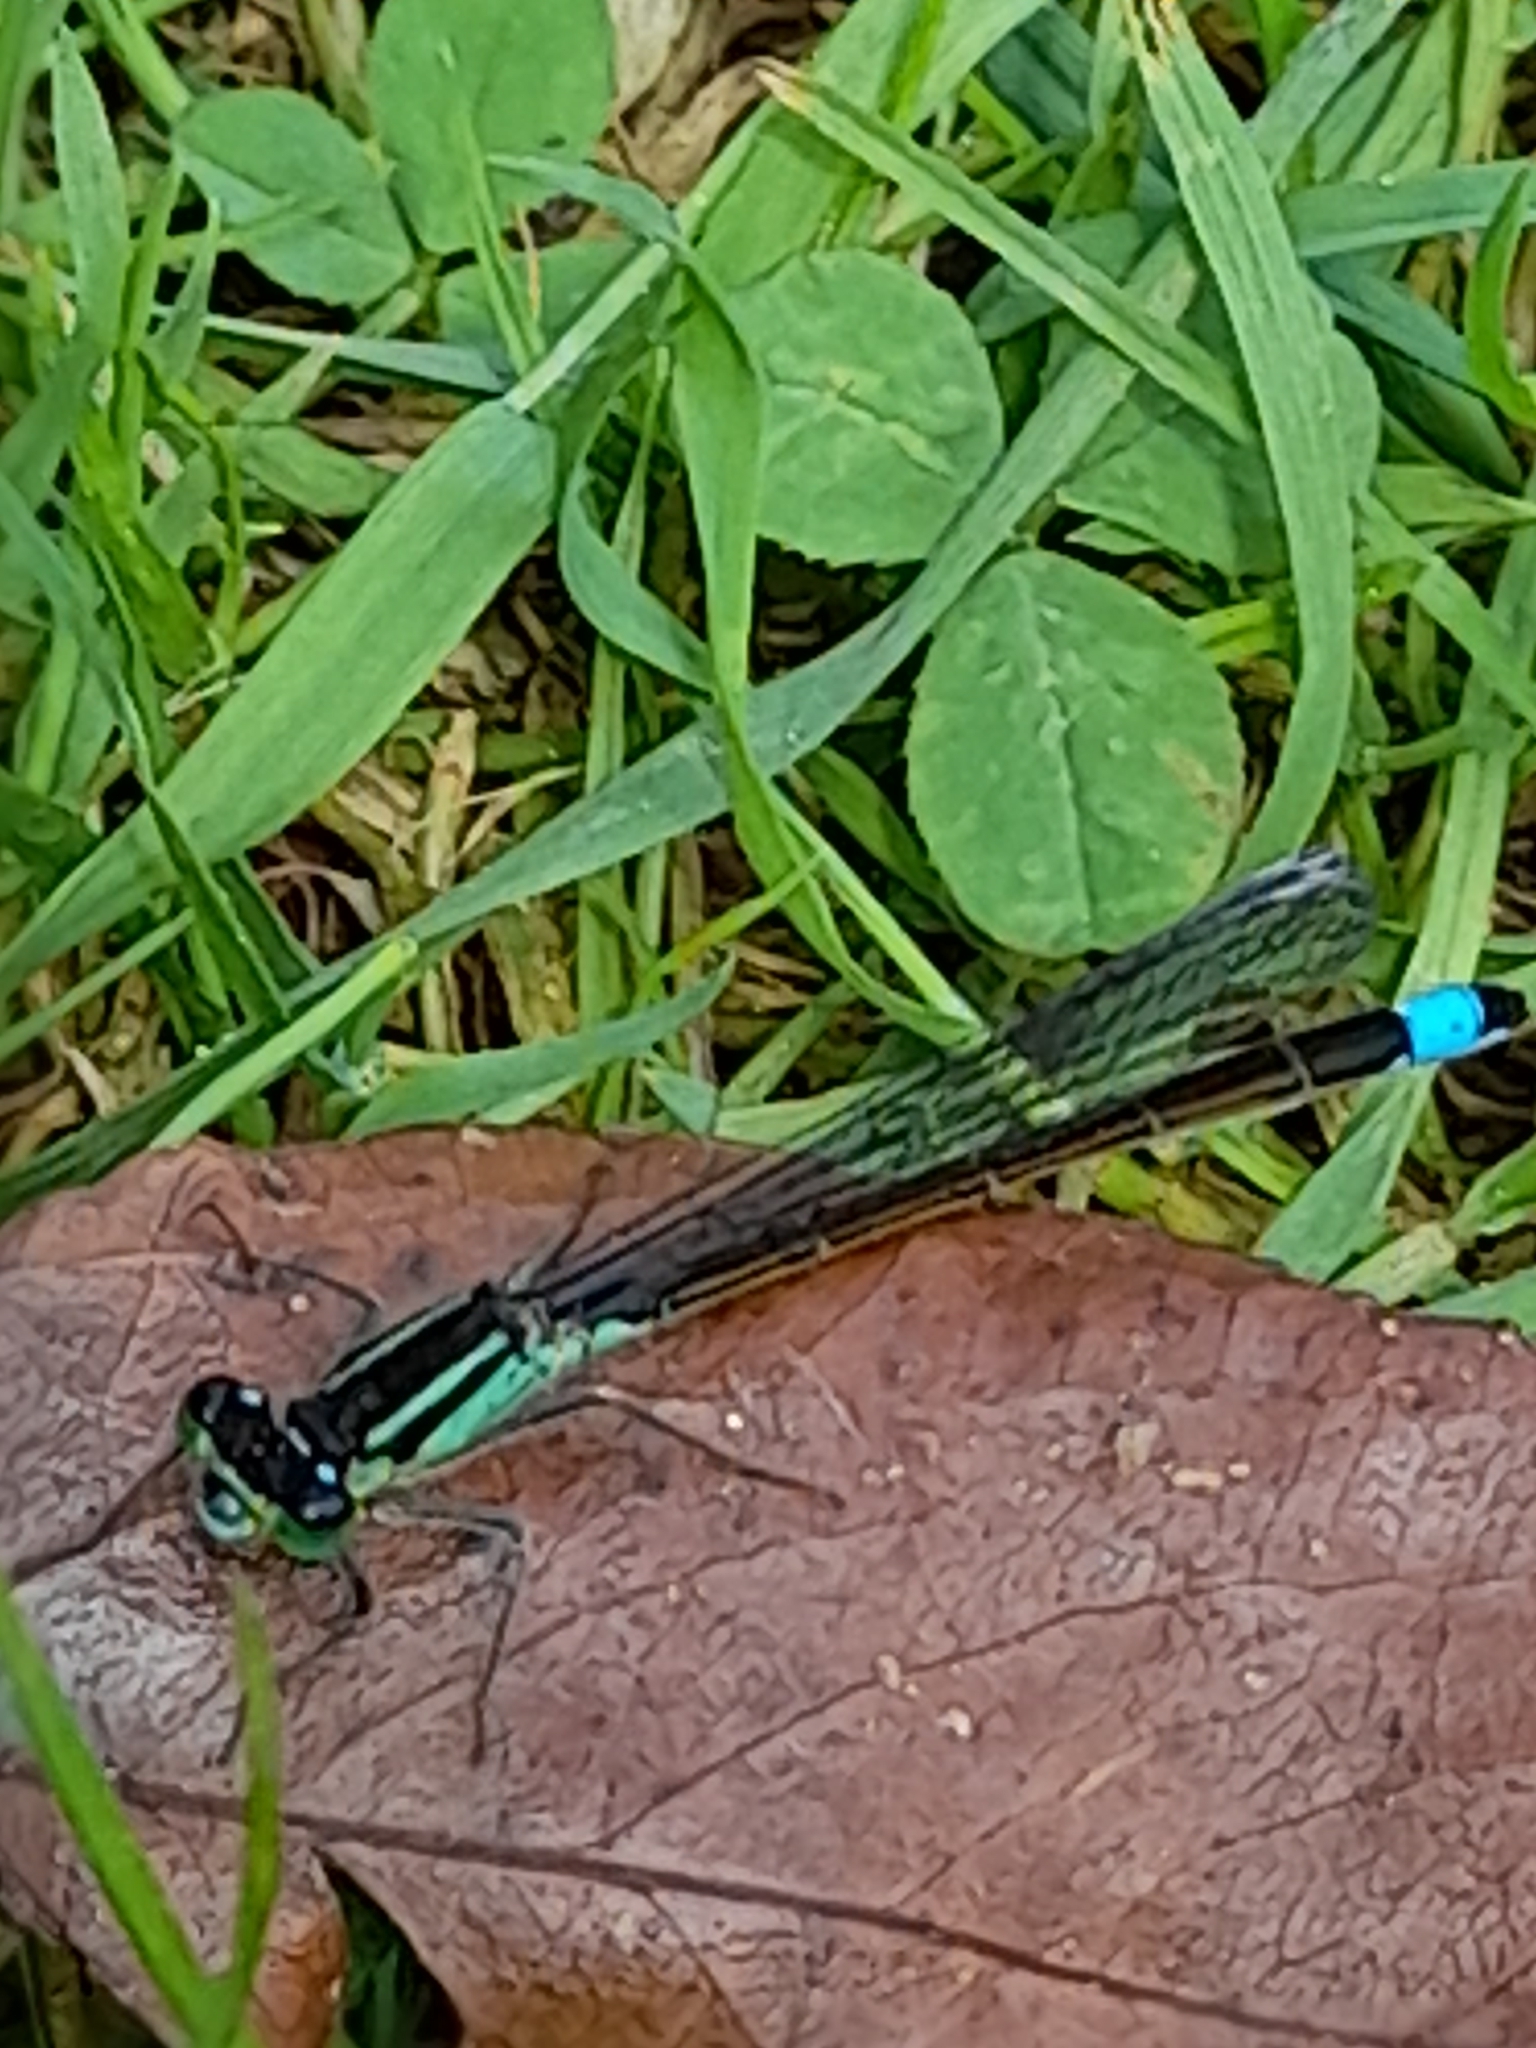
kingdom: Animalia
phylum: Arthropoda
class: Insecta
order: Odonata
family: Coenagrionidae
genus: Ischnura
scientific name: Ischnura elegans
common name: Blue-tailed damselfly
